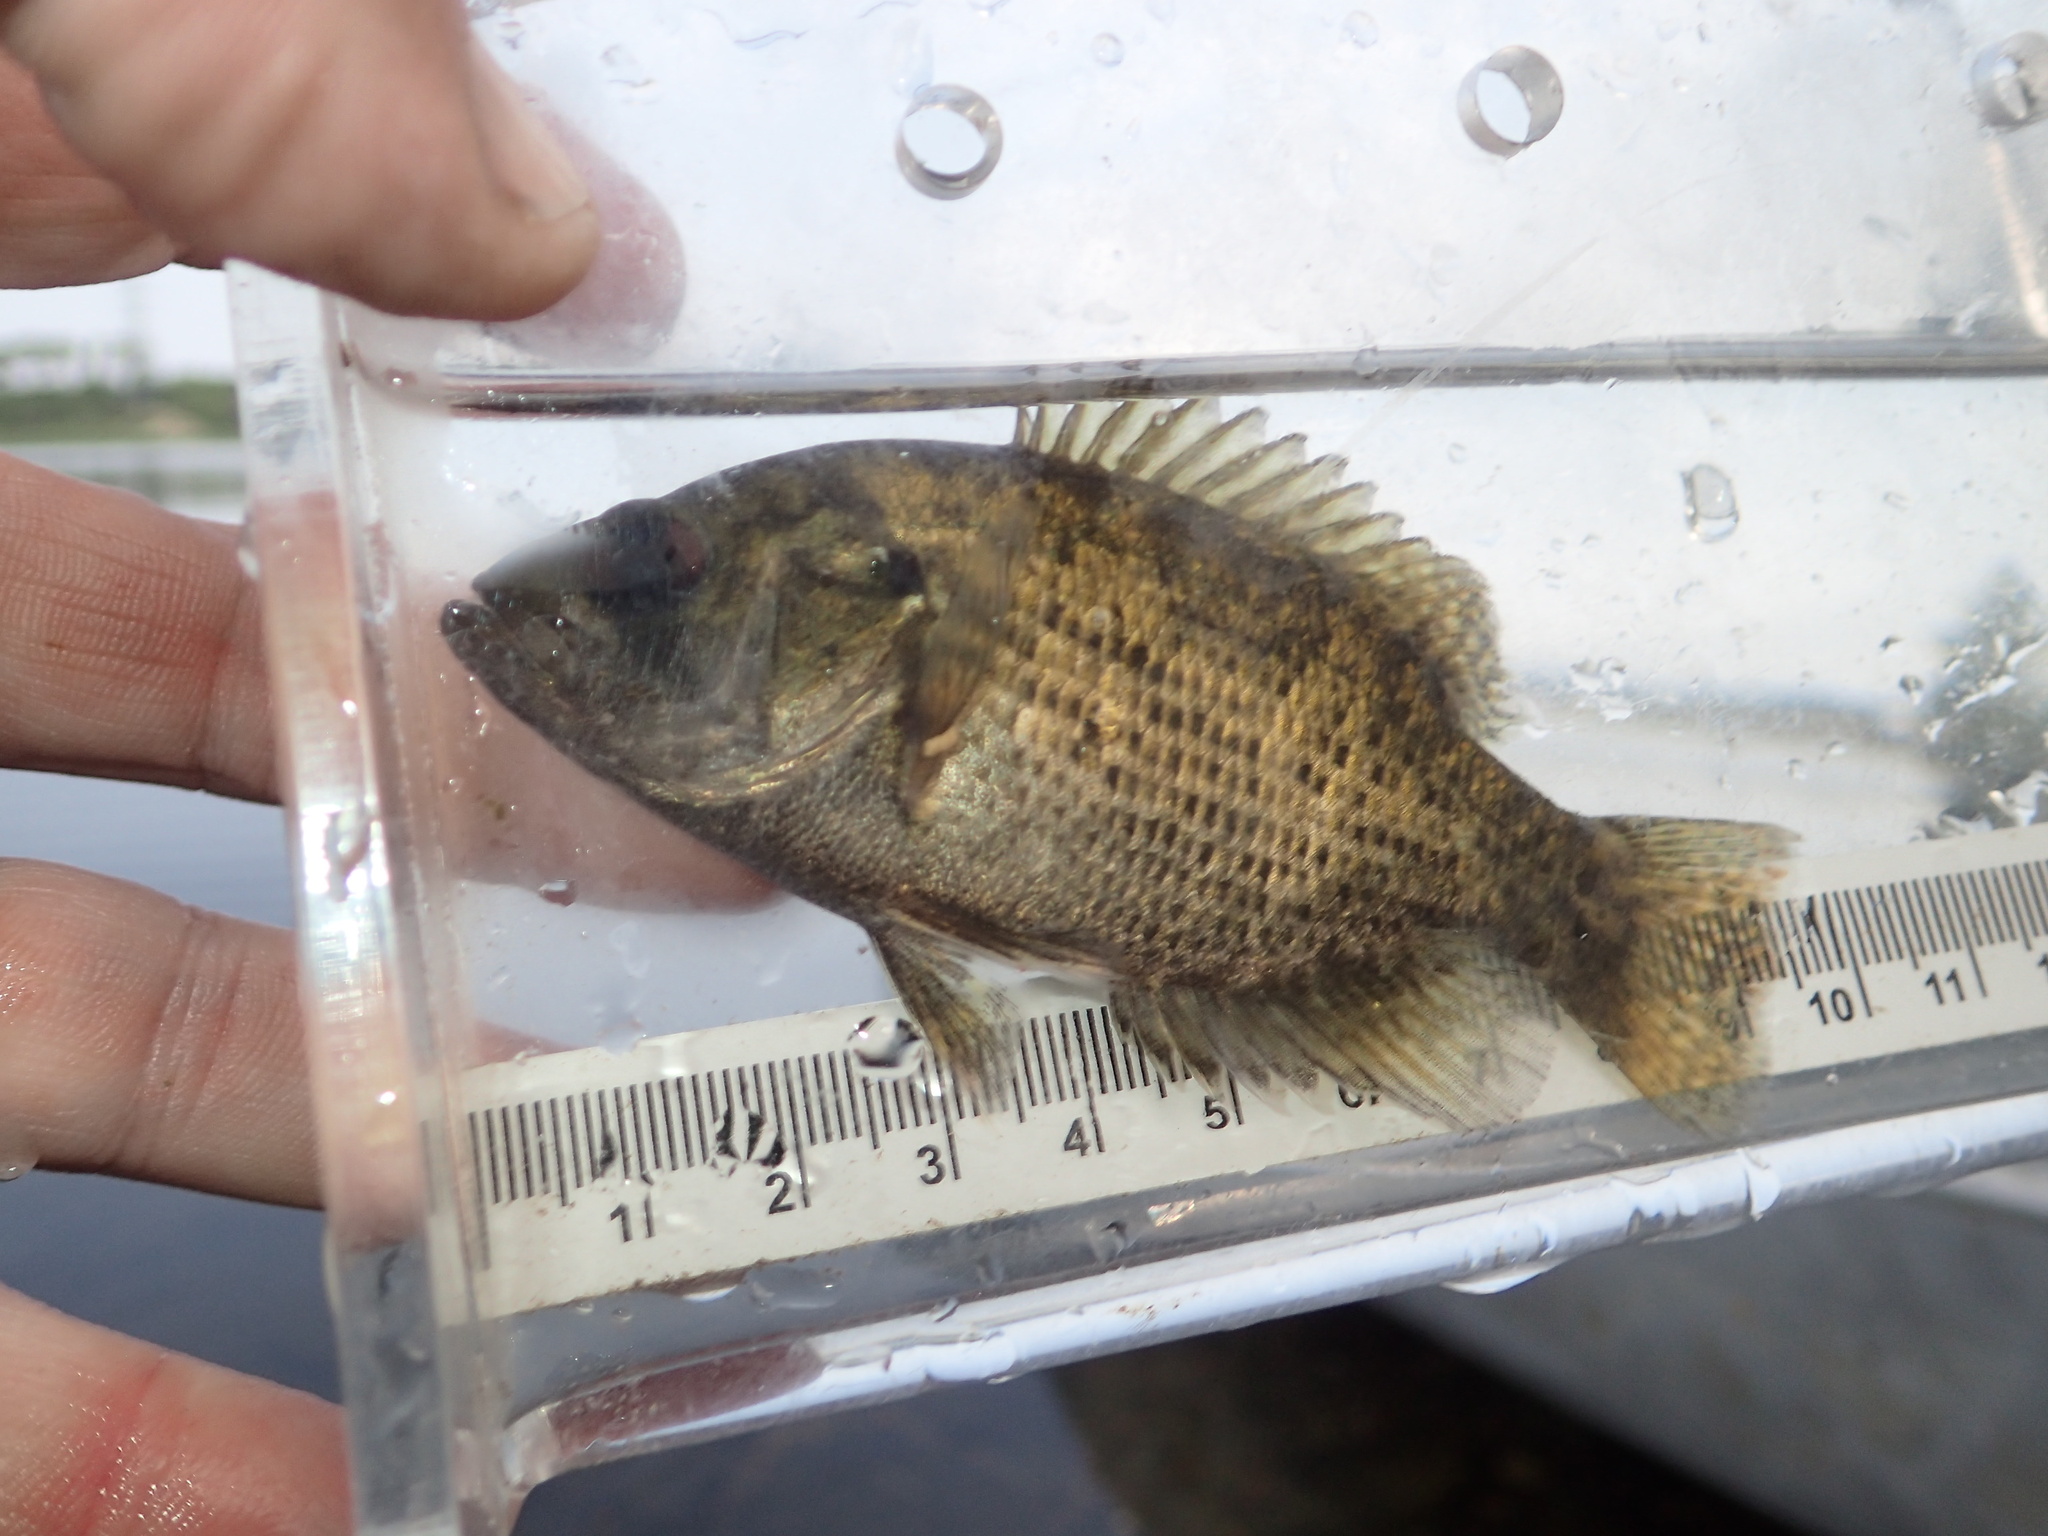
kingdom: Animalia
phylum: Chordata
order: Perciformes
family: Centrarchidae
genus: Ambloplites
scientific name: Ambloplites rupestris
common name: Rock bass
